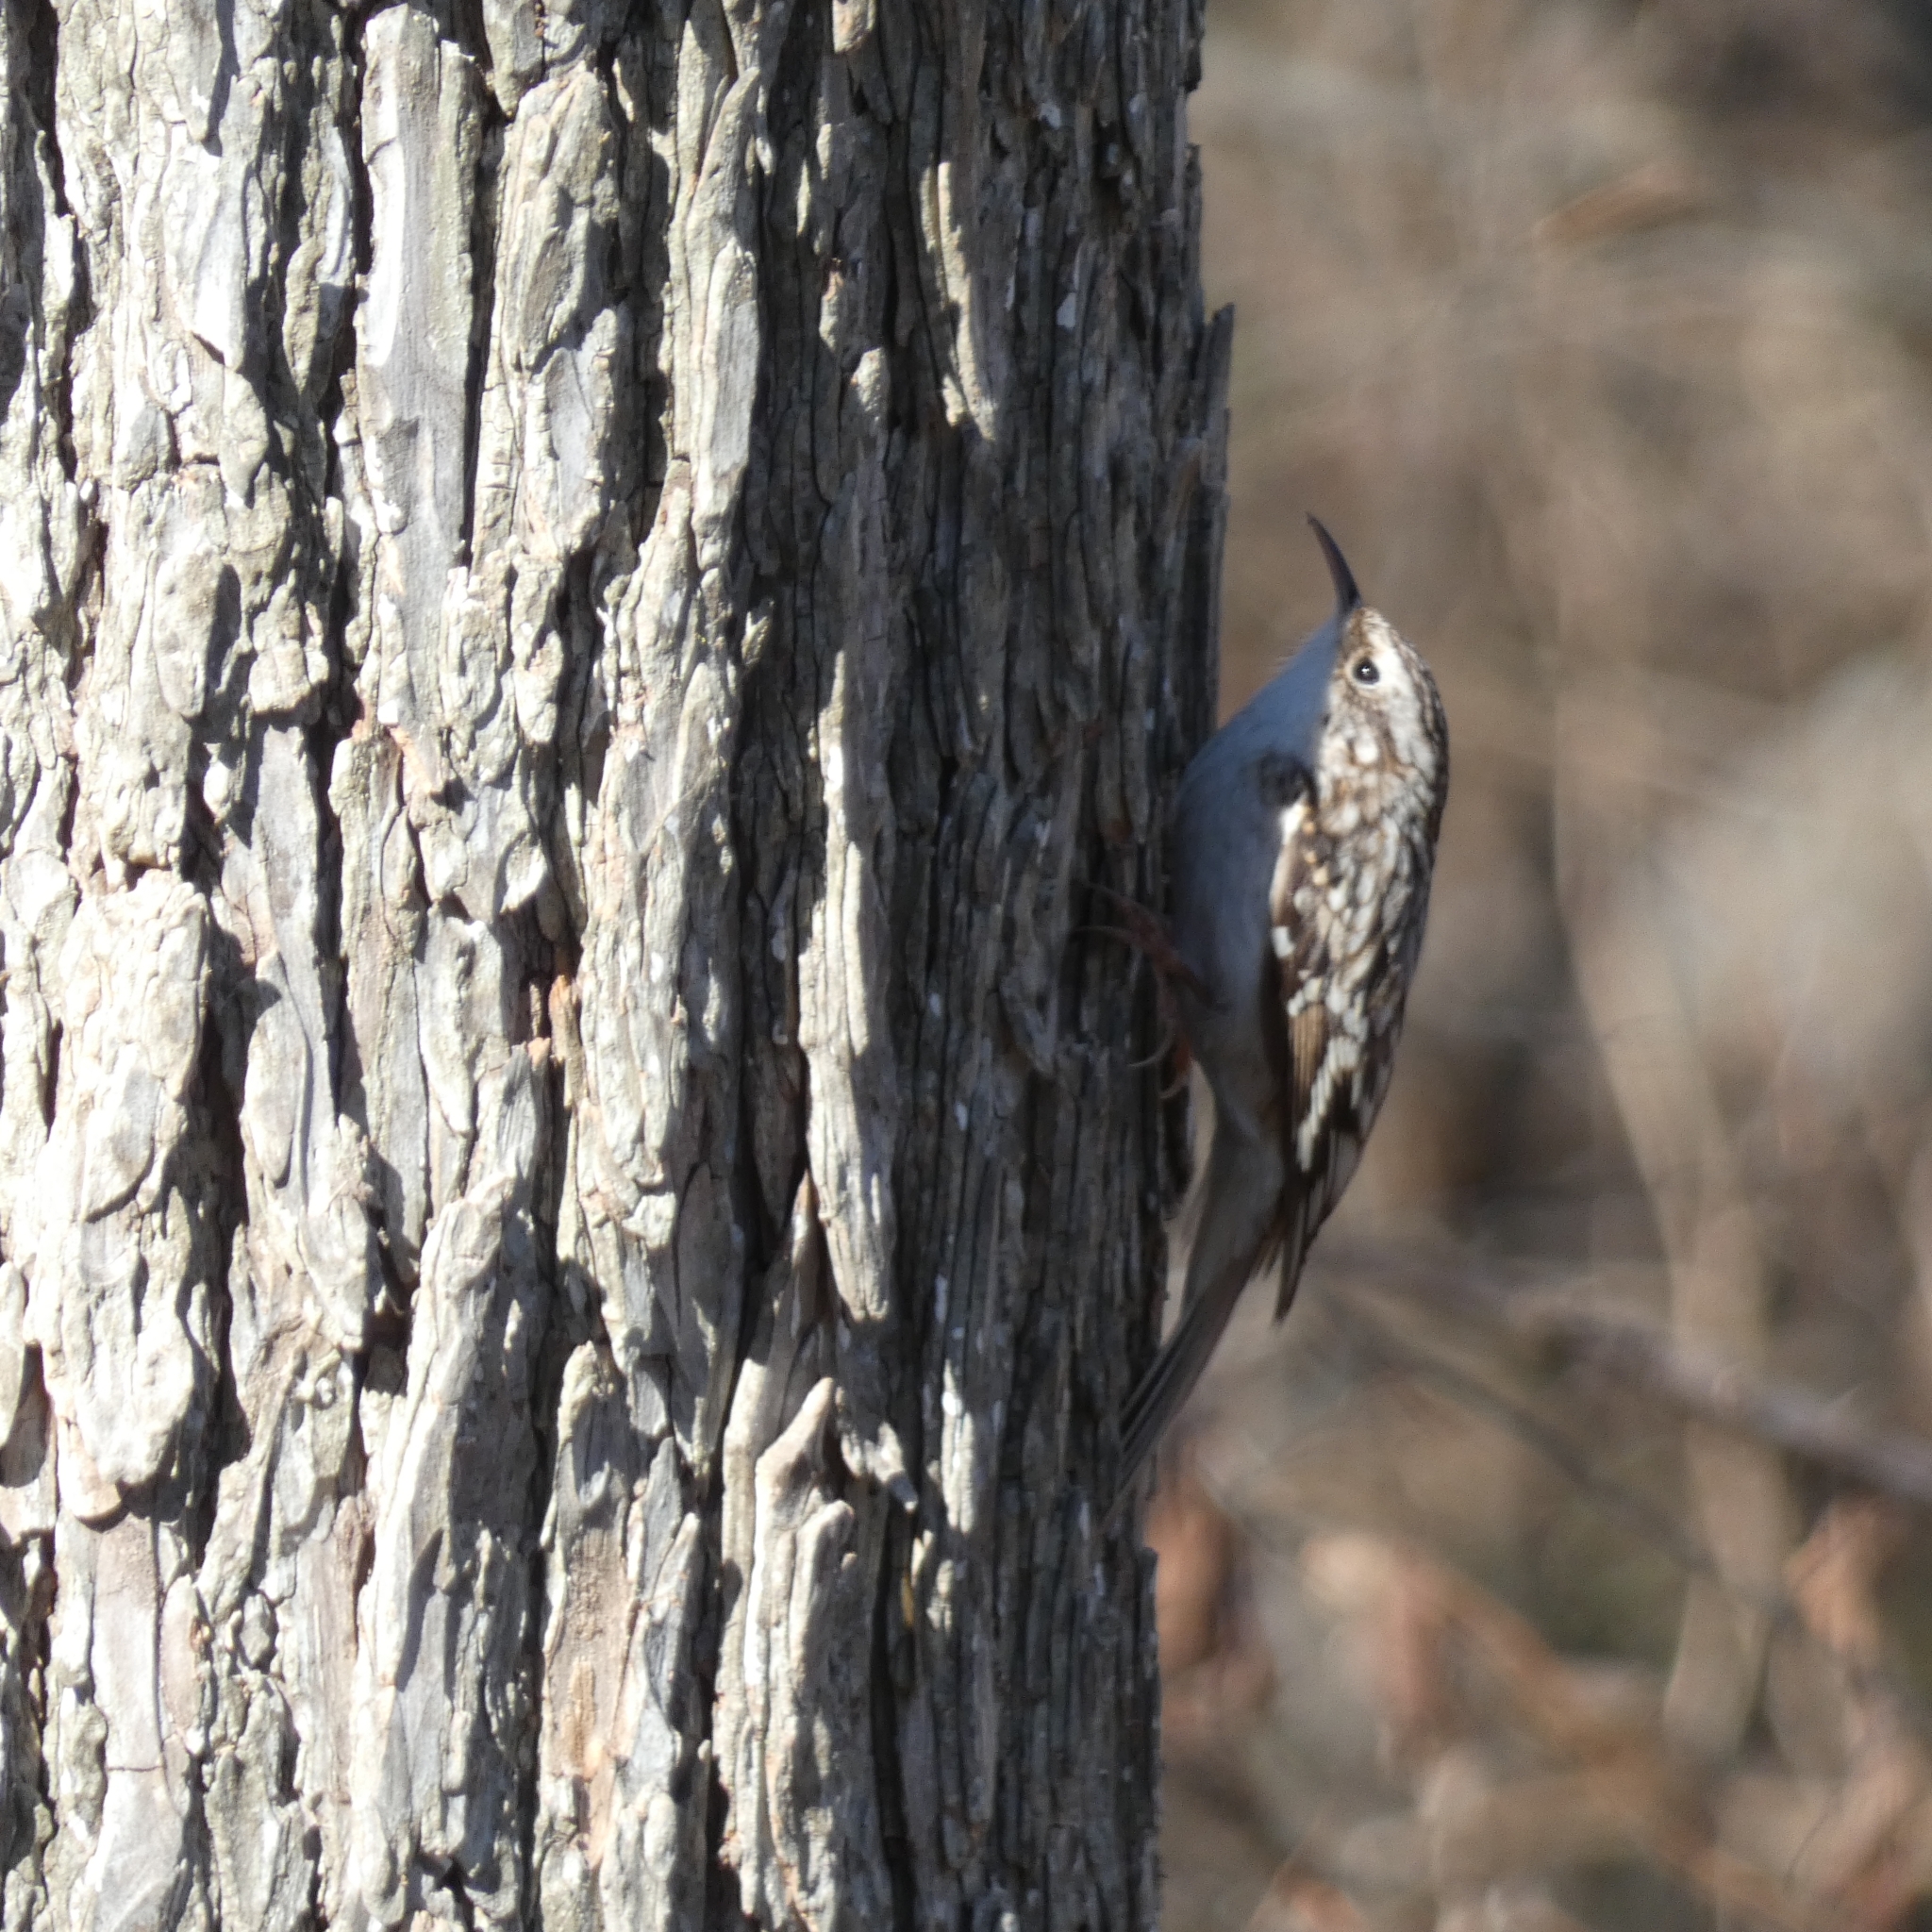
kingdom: Animalia
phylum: Chordata
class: Aves
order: Passeriformes
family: Certhiidae
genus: Certhia
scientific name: Certhia americana
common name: Brown creeper
